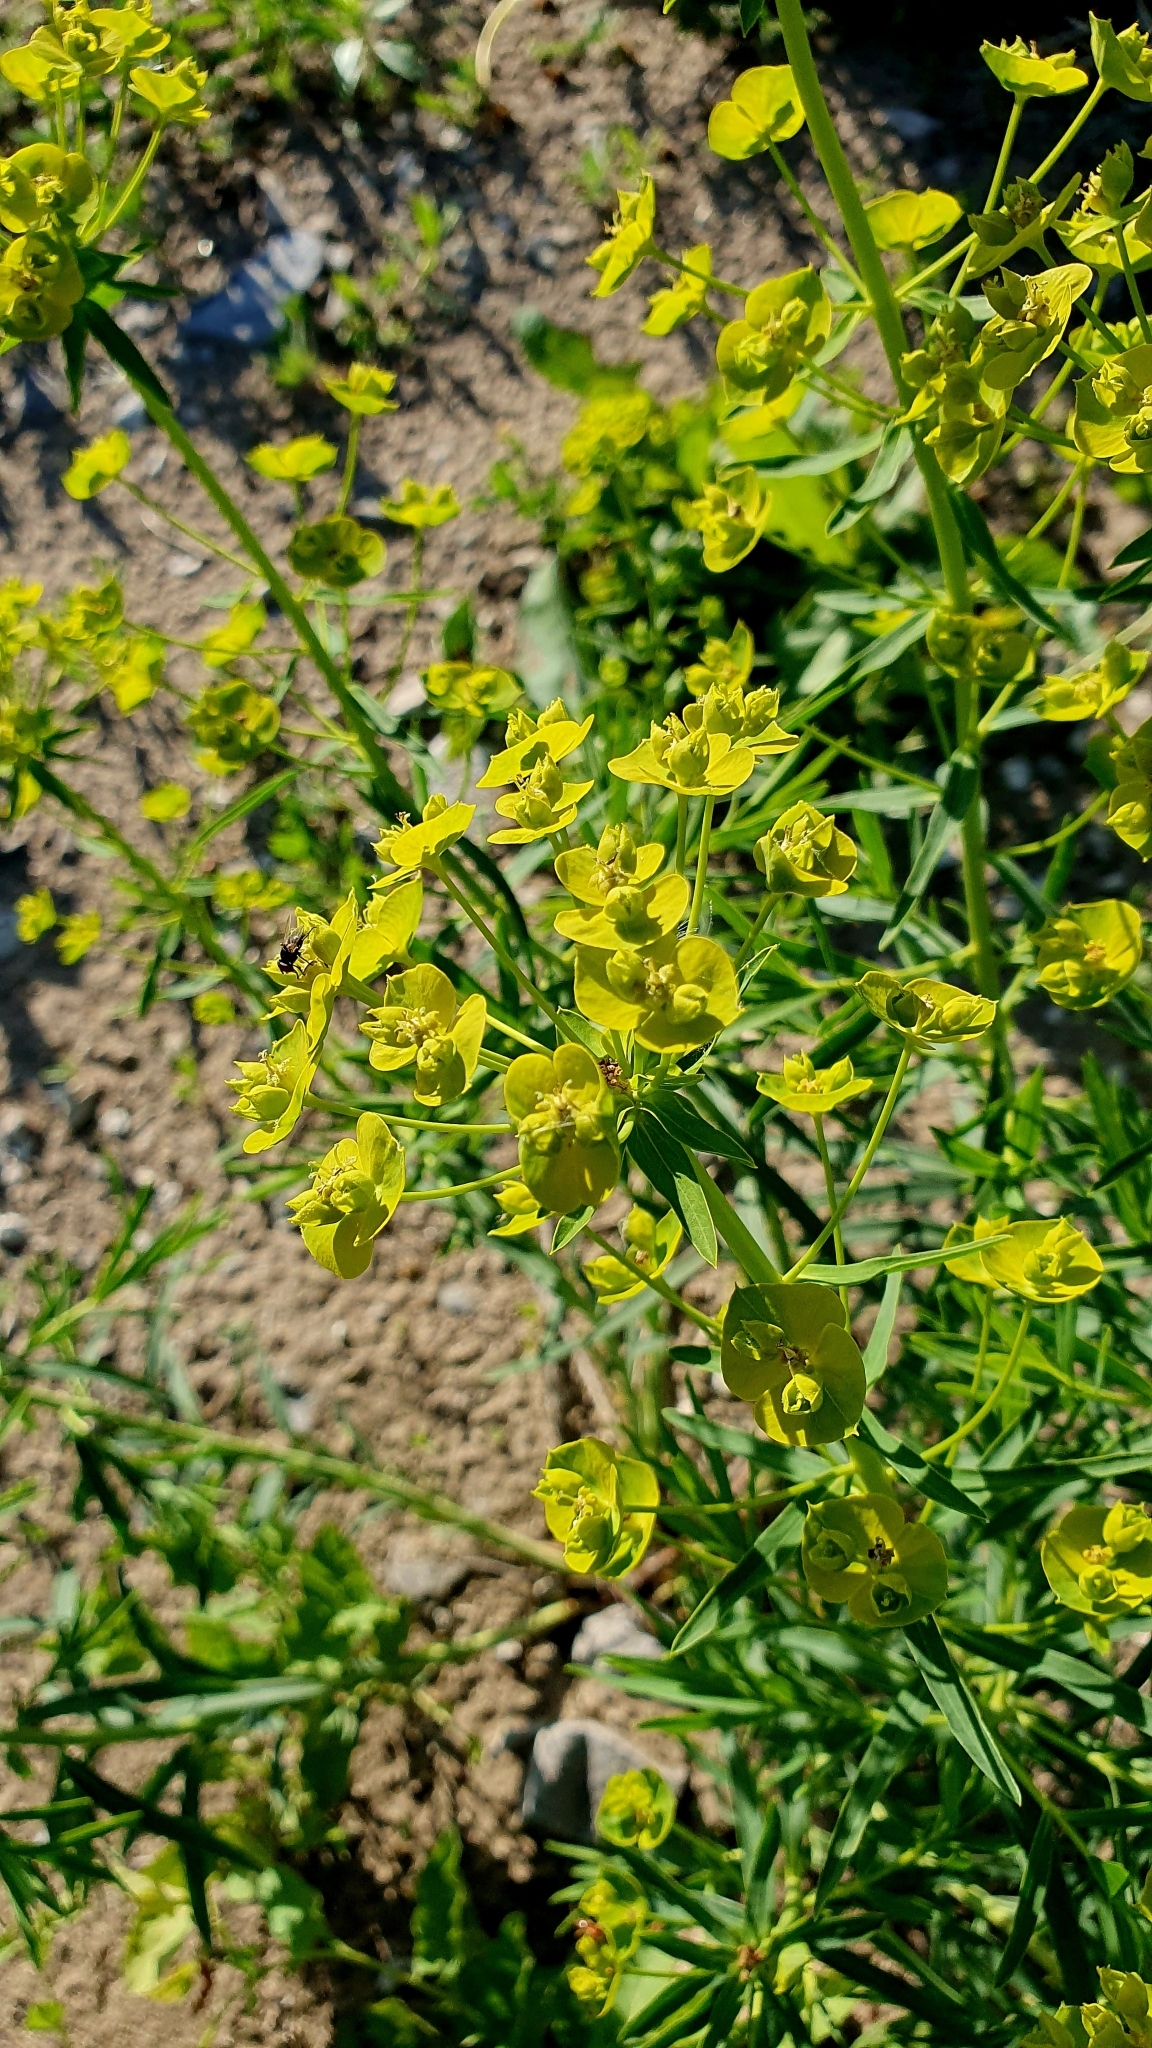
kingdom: Plantae
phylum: Tracheophyta
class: Magnoliopsida
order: Malpighiales
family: Euphorbiaceae
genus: Euphorbia
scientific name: Euphorbia virgata
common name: Leafy spurge
